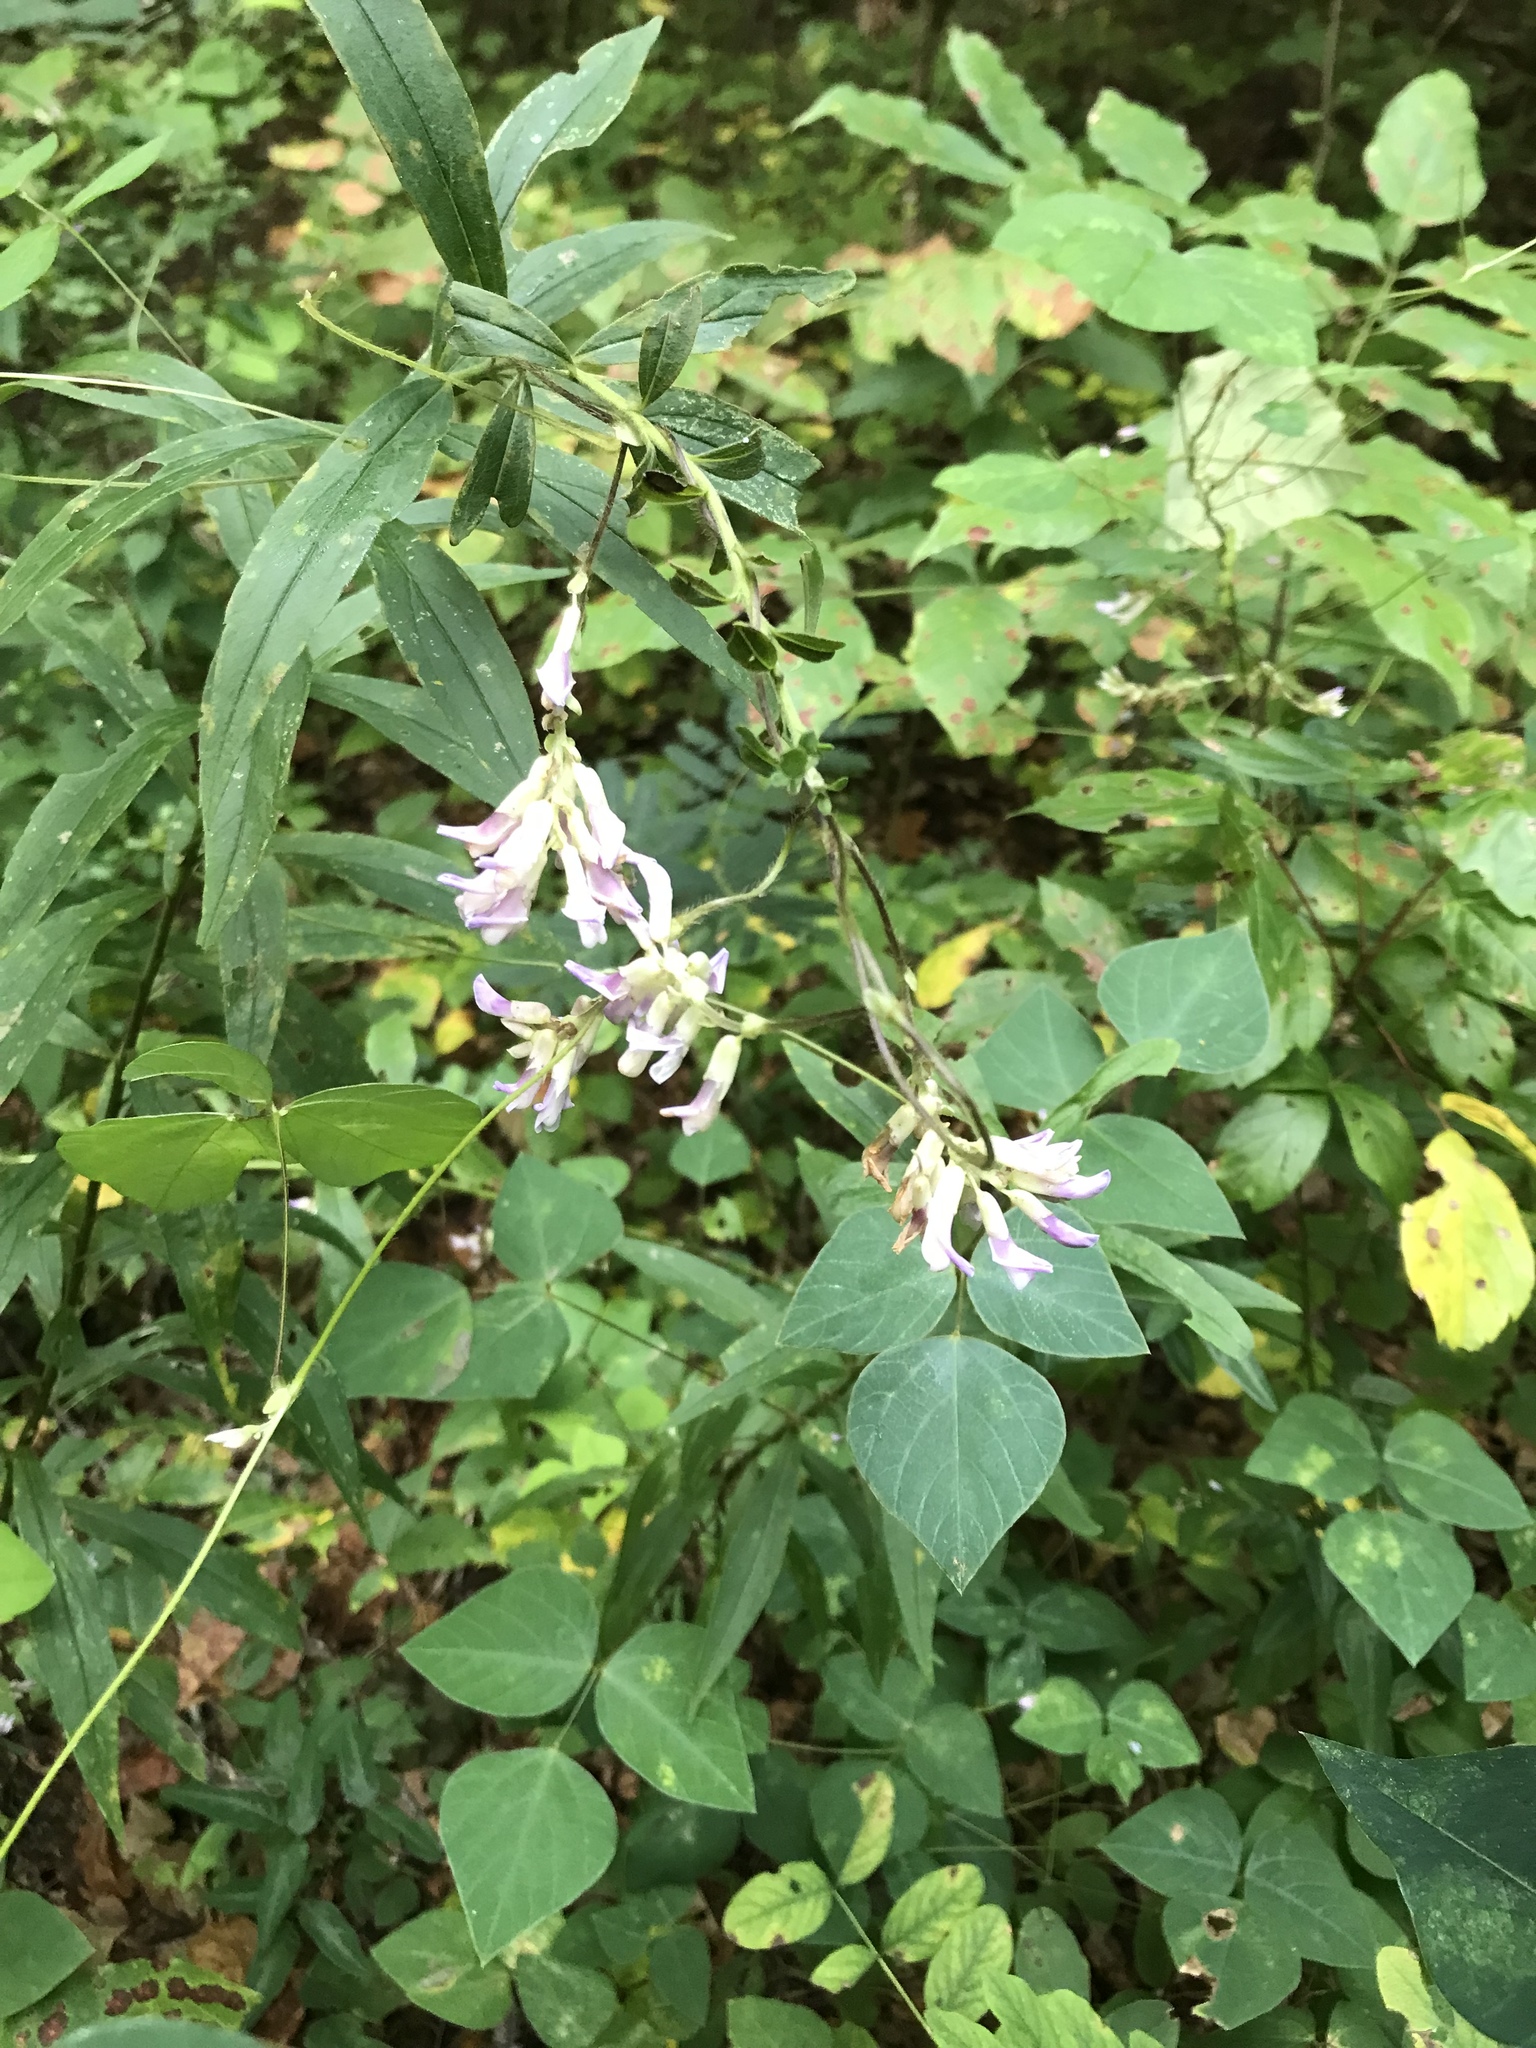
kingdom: Plantae
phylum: Tracheophyta
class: Magnoliopsida
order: Fabales
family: Fabaceae
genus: Amphicarpaea
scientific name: Amphicarpaea bracteata
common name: American hog peanut
